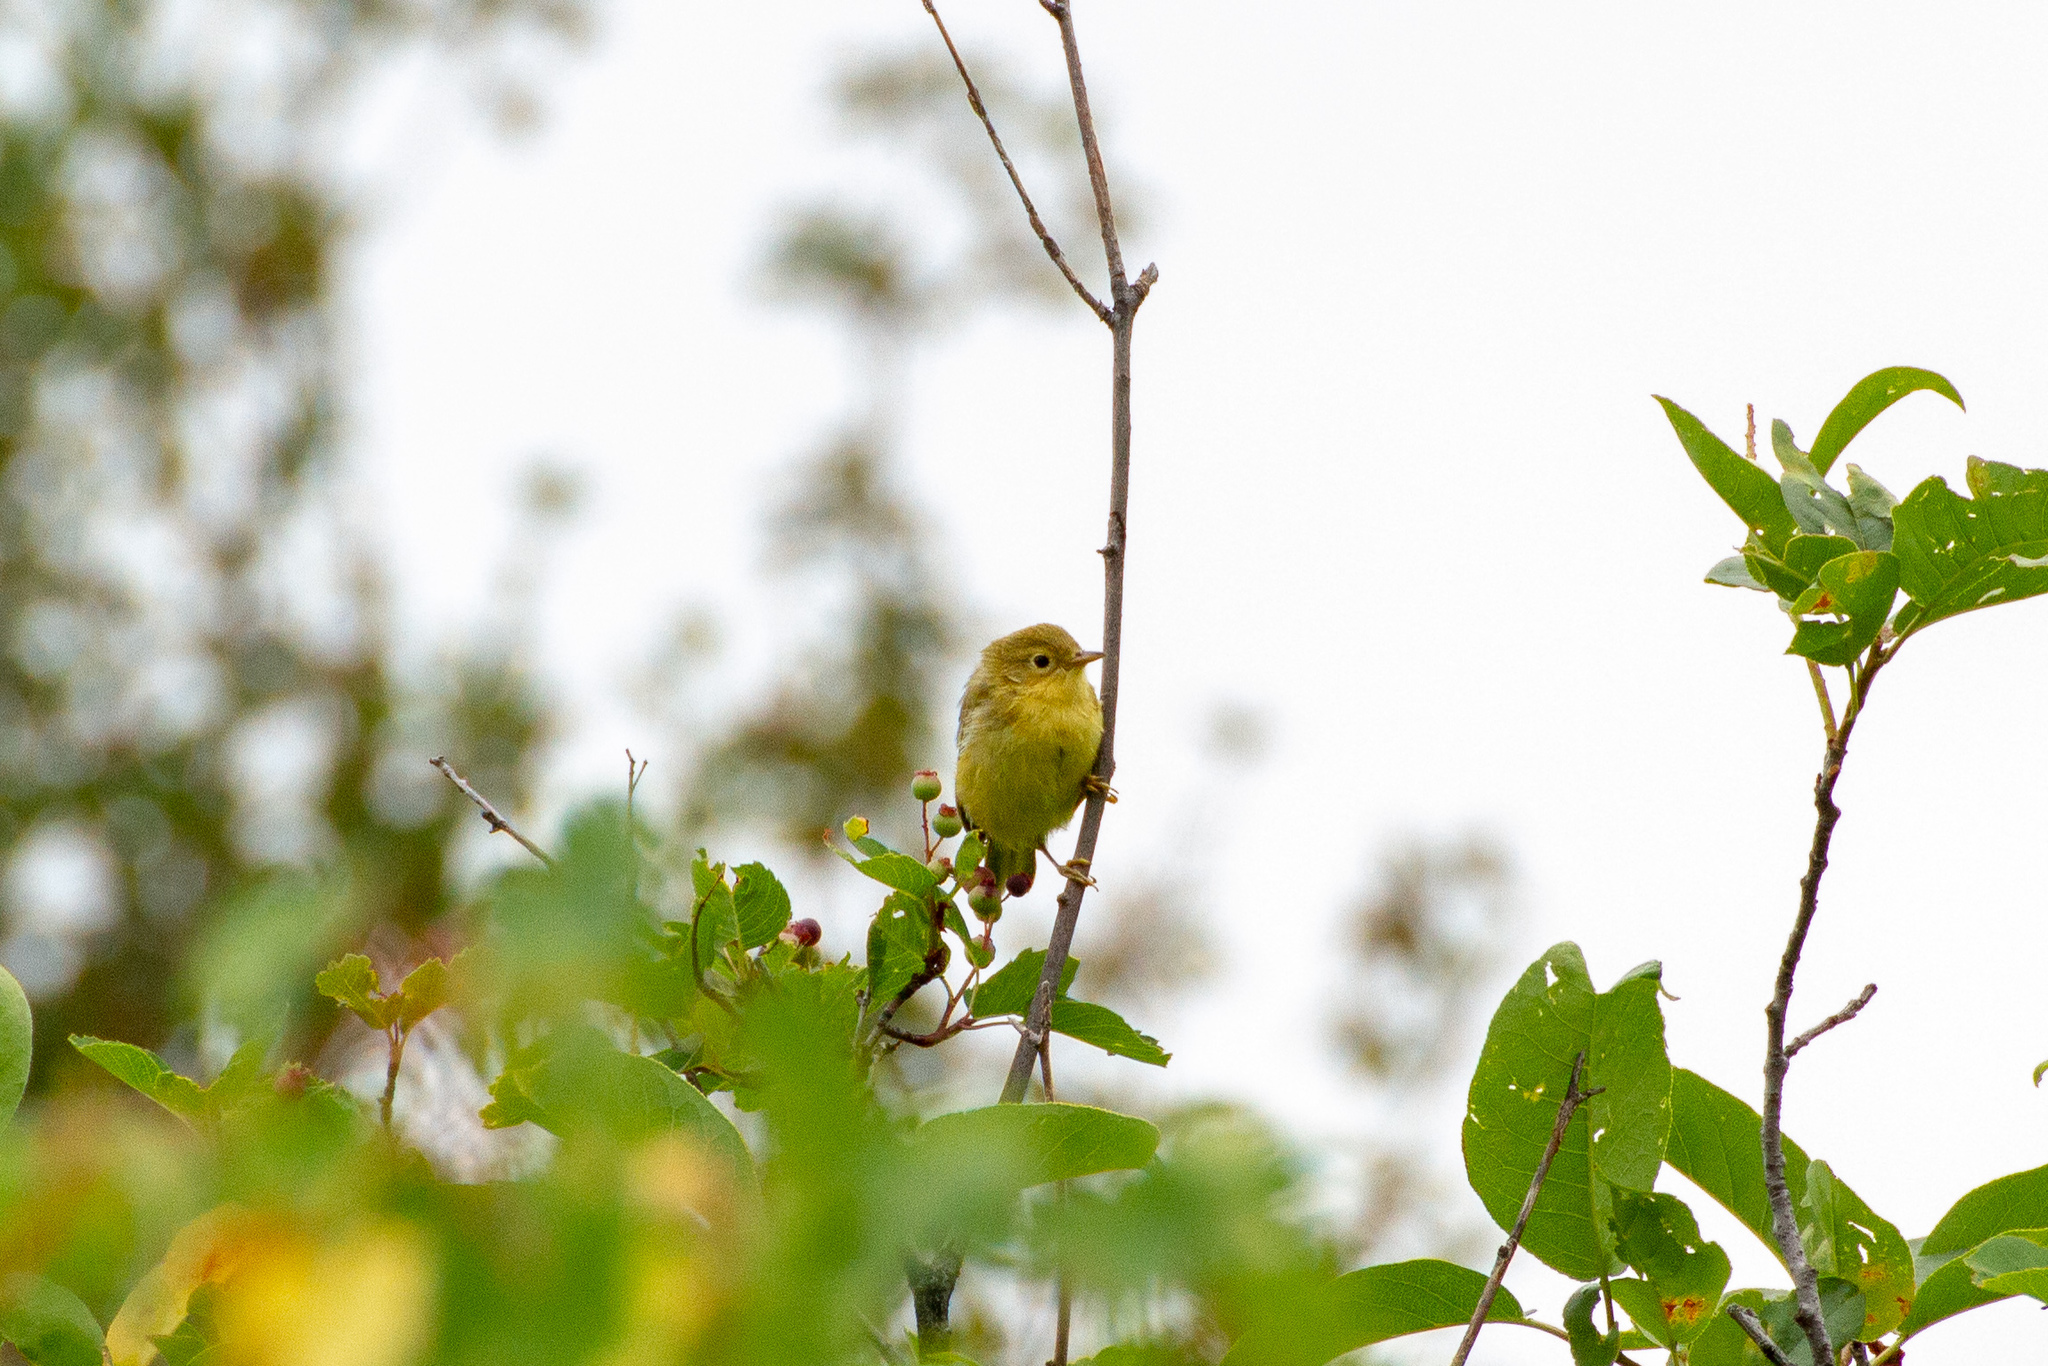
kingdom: Animalia
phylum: Chordata
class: Aves
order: Passeriformes
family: Parulidae
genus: Setophaga
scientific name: Setophaga petechia
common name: Yellow warbler
